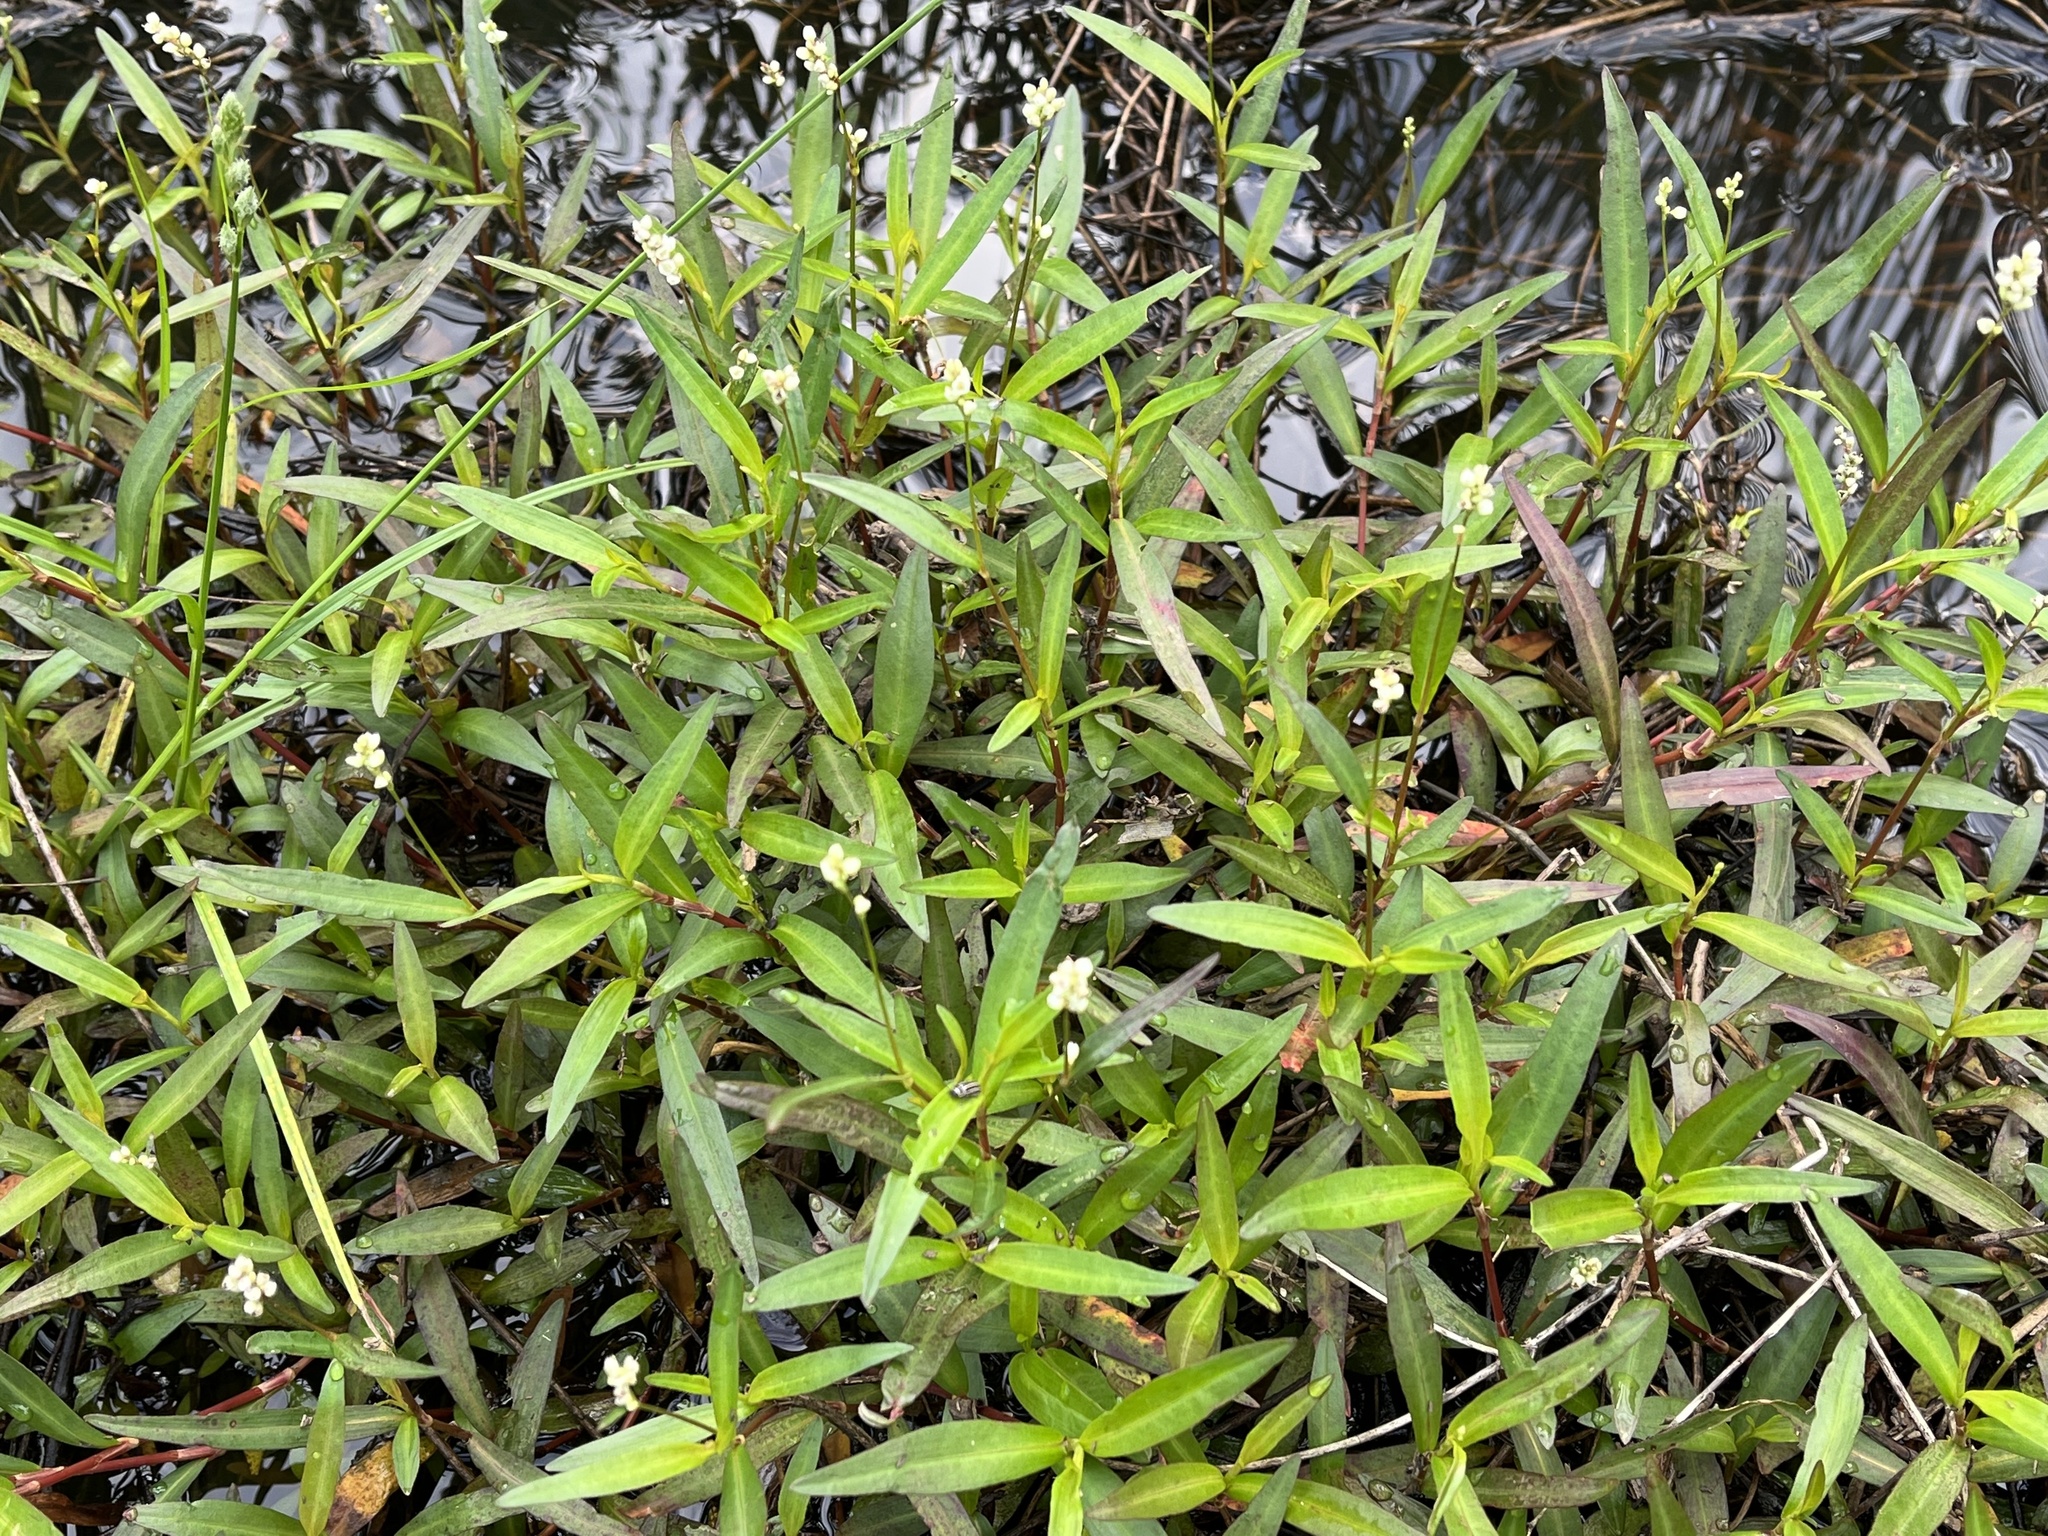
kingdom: Plantae
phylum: Tracheophyta
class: Magnoliopsida
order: Caryophyllales
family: Polygonaceae
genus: Persicaria
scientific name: Persicaria hydropiperoides
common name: Swamp smartweed
